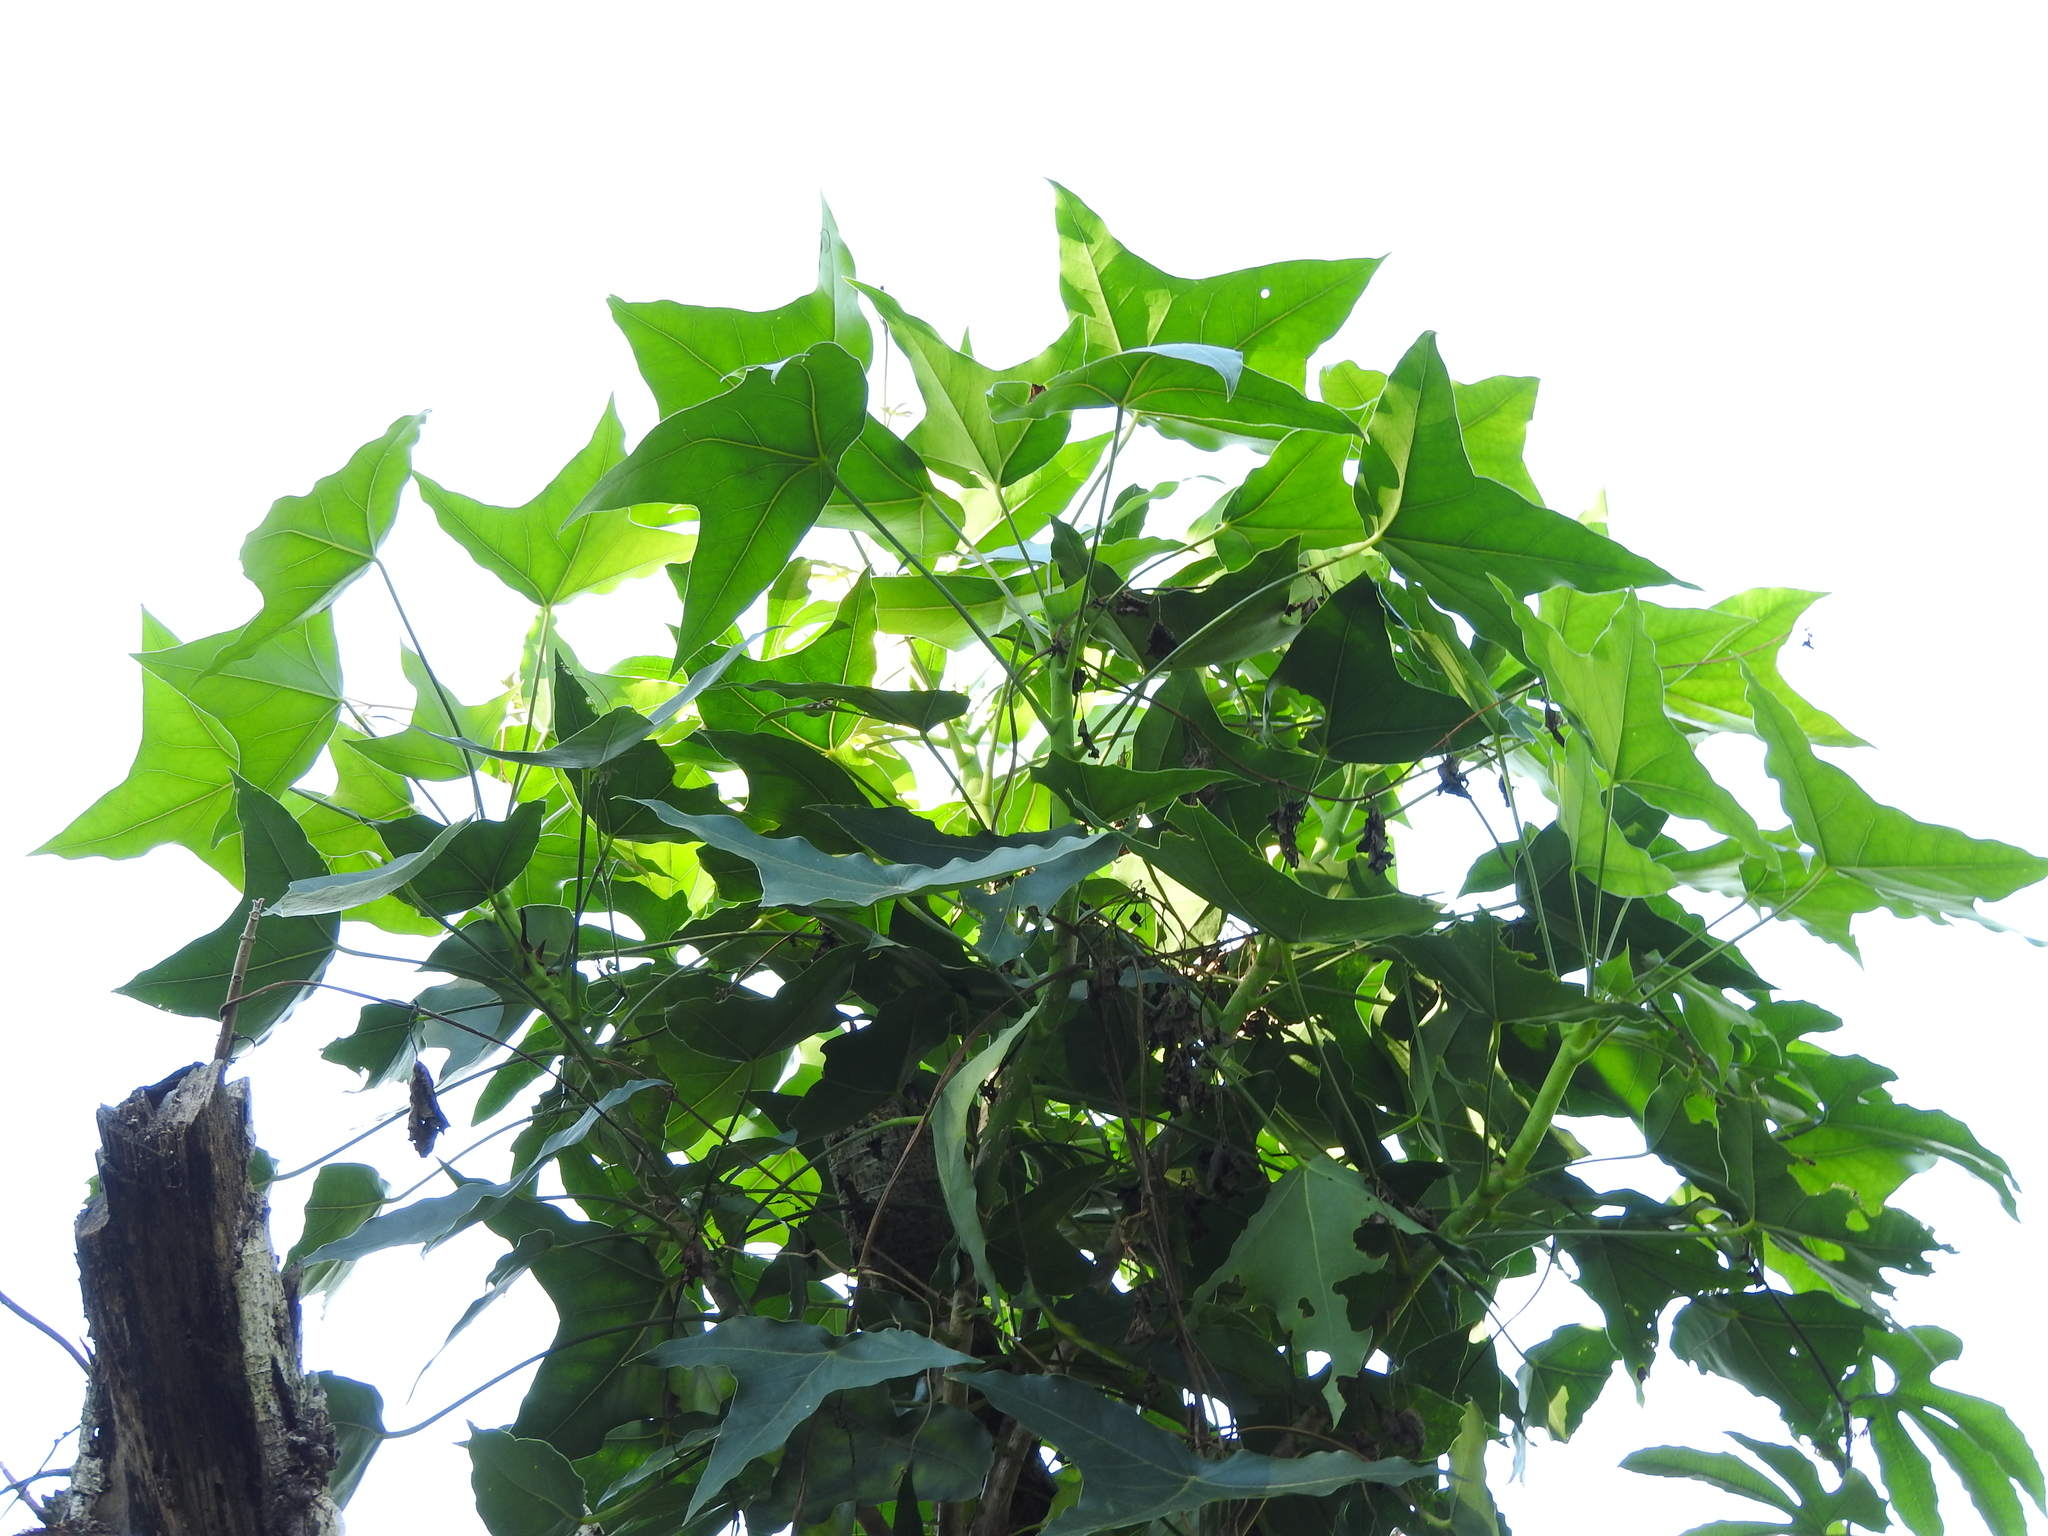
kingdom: Plantae
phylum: Tracheophyta
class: Magnoliopsida
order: Apiales
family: Araliaceae
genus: Oreopanax
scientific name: Oreopanax sanderianus
